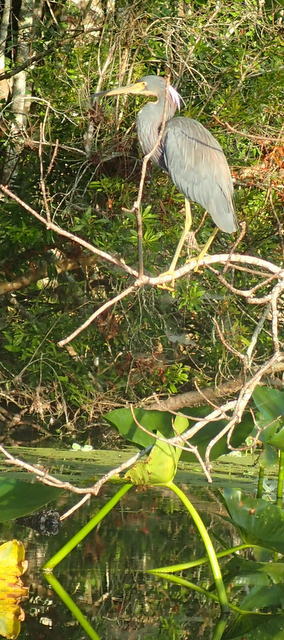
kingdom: Animalia
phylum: Chordata
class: Aves
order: Pelecaniformes
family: Ardeidae
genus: Egretta
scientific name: Egretta tricolor
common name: Tricolored heron
